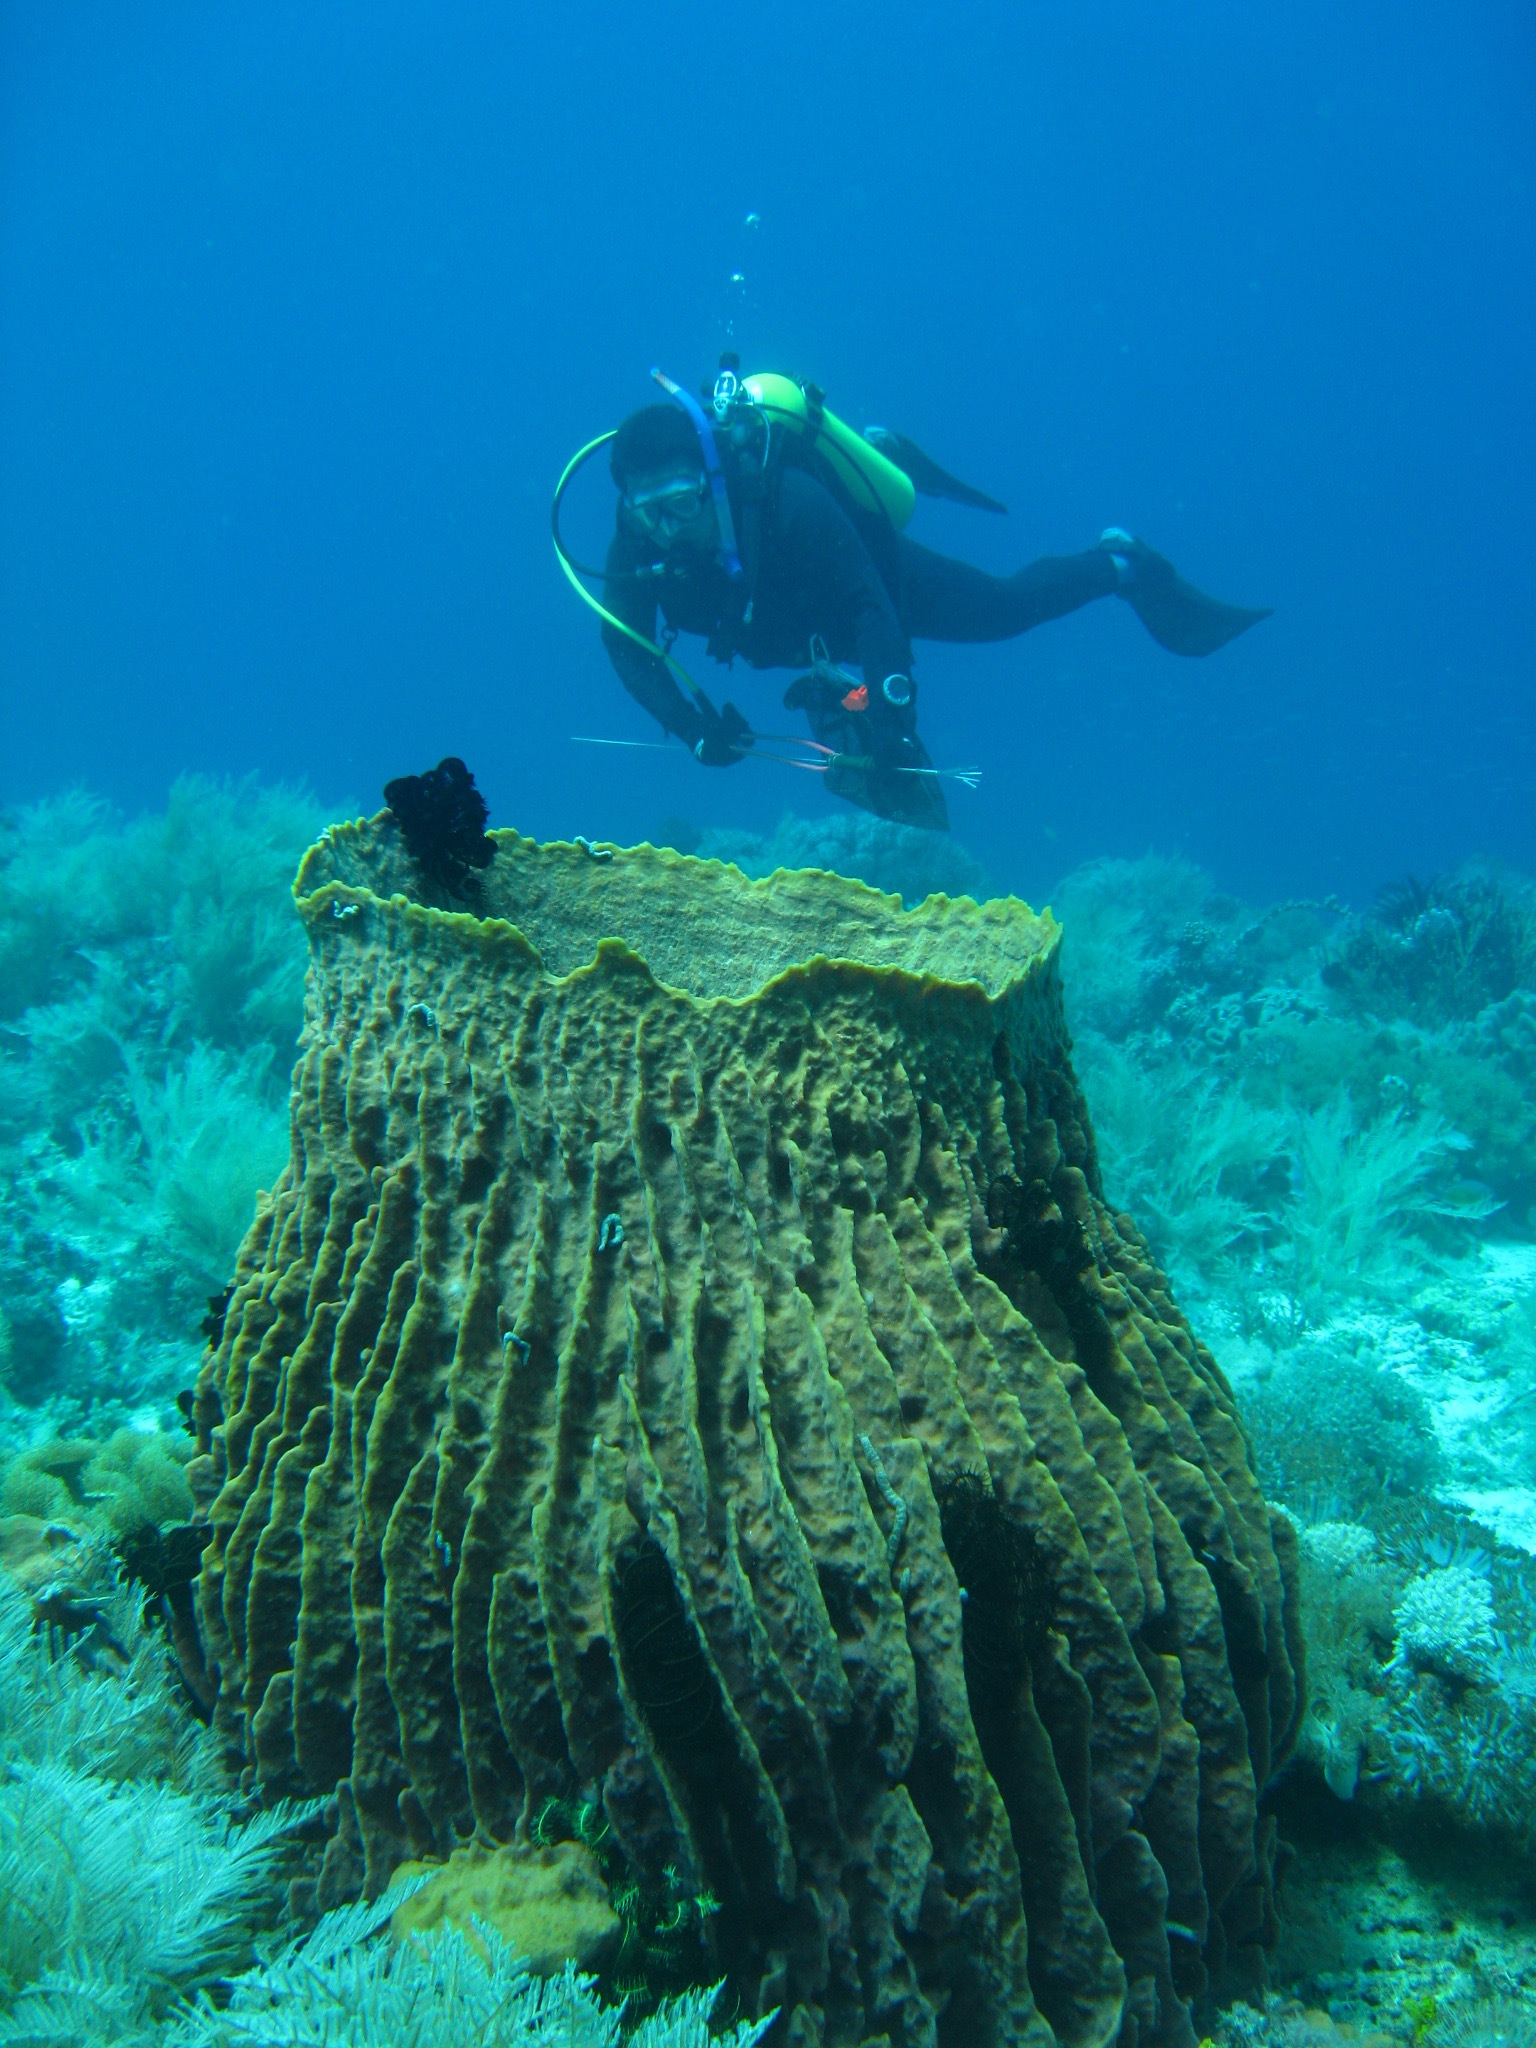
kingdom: Animalia
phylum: Porifera
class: Demospongiae
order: Haplosclerida
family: Petrosiidae
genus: Xestospongia
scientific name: Xestospongia testudinaria
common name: Barrel sponge
